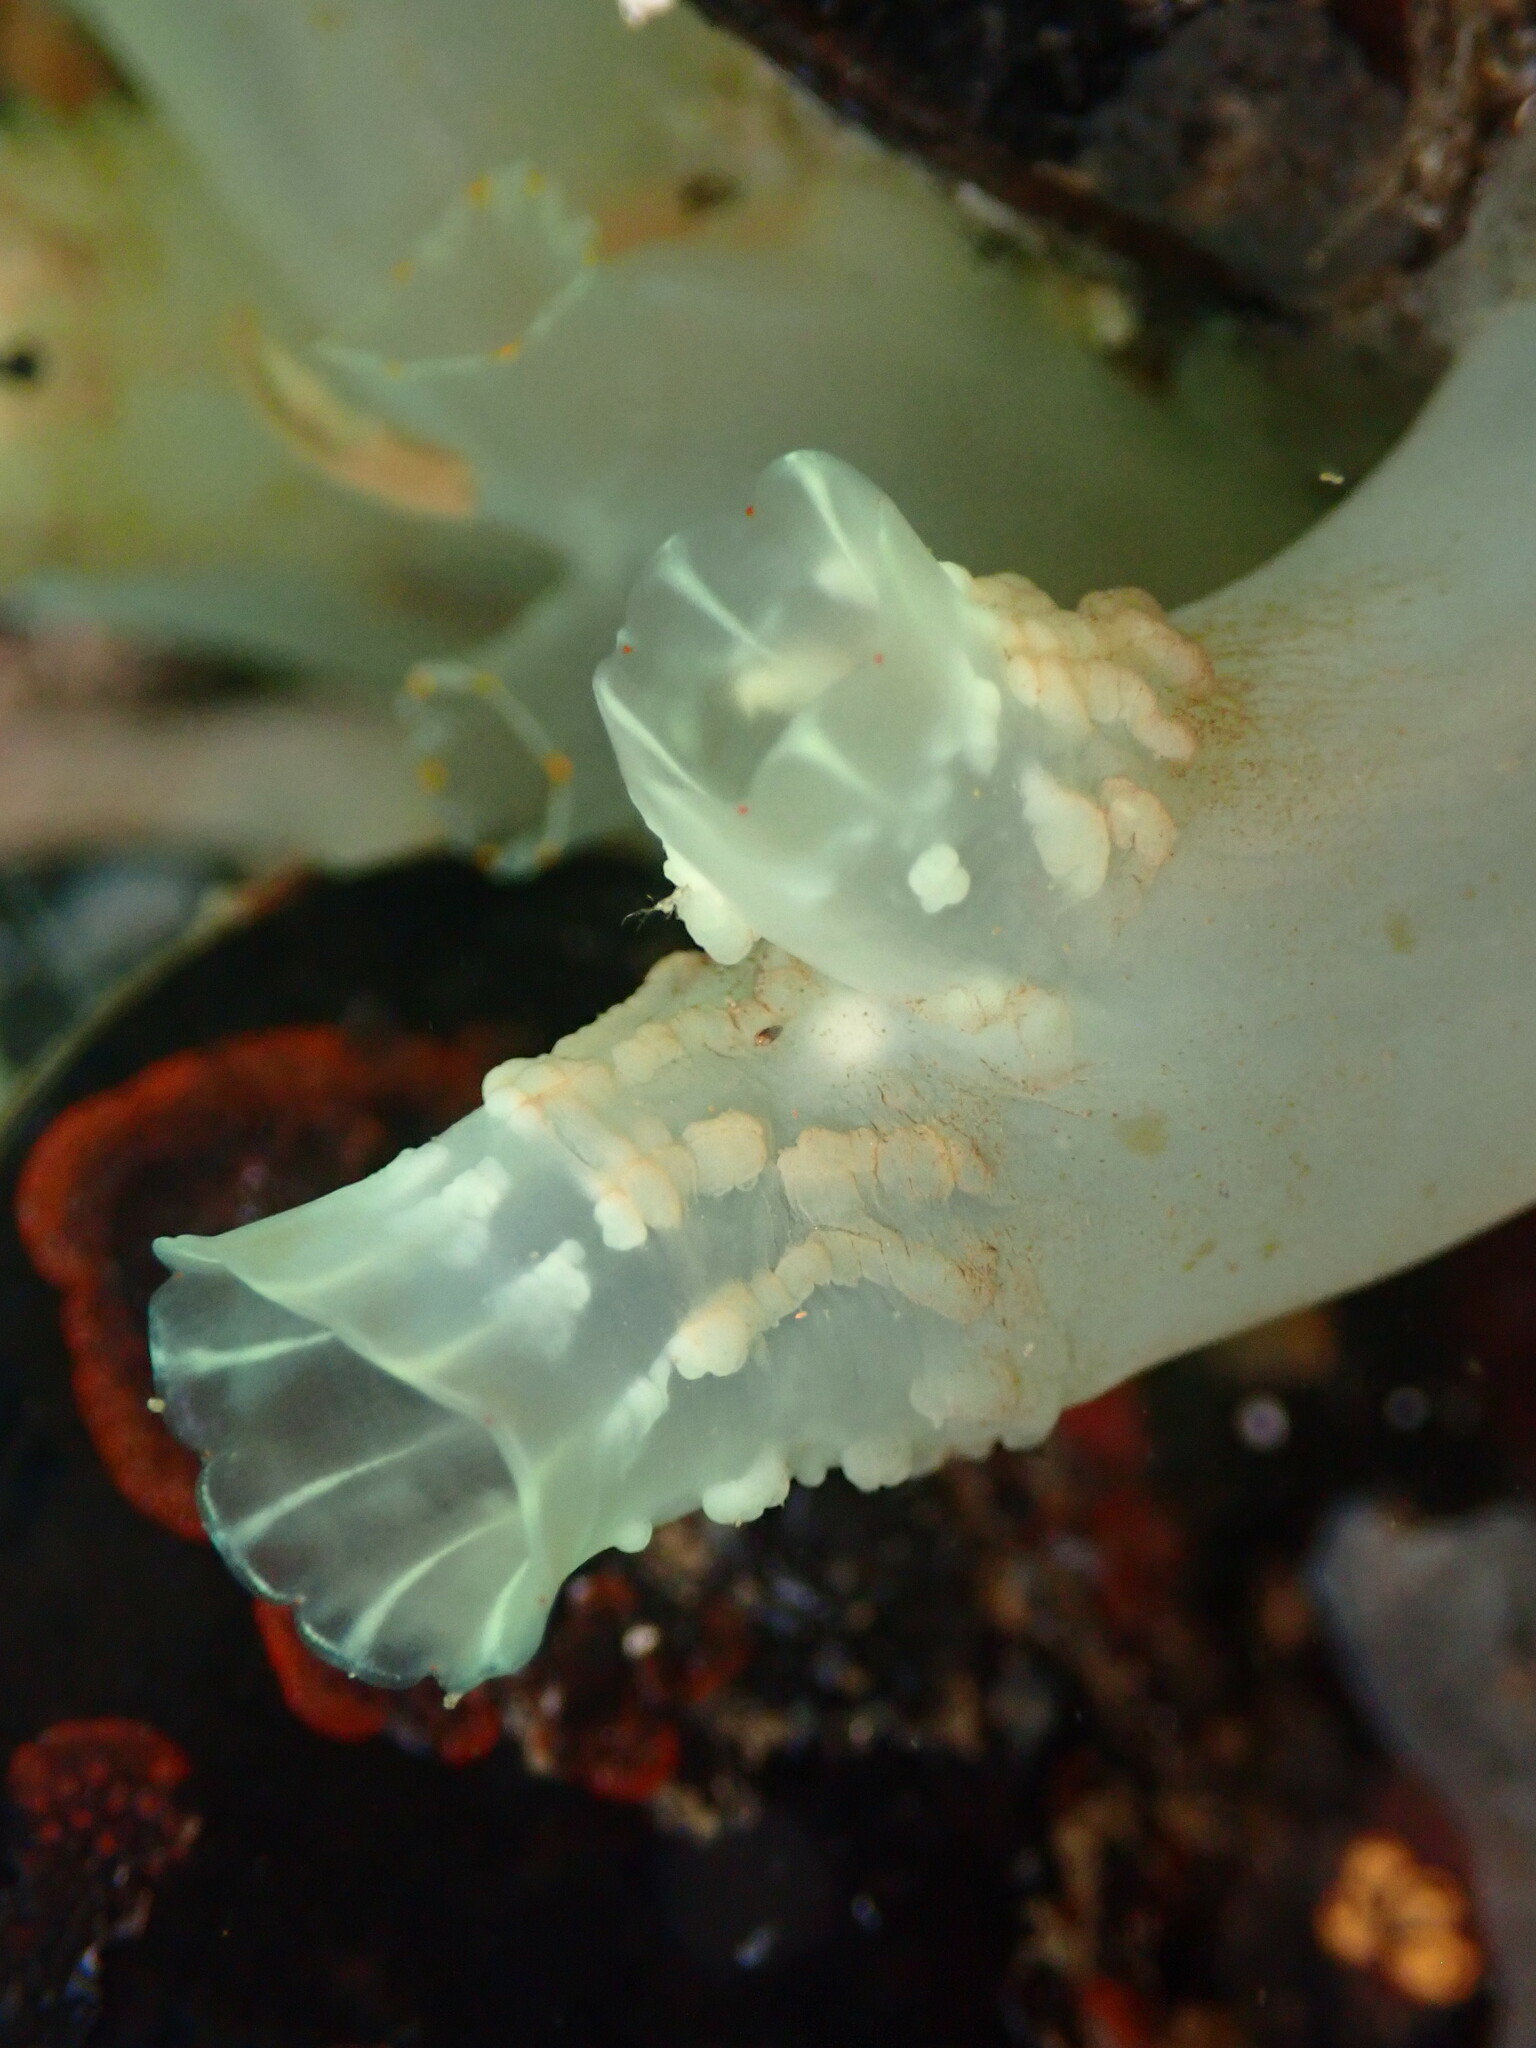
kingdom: Animalia
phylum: Chordata
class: Ascidiacea
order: Phlebobranchia
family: Cionidae
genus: Ciona
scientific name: Ciona robusta
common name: Tunicate
